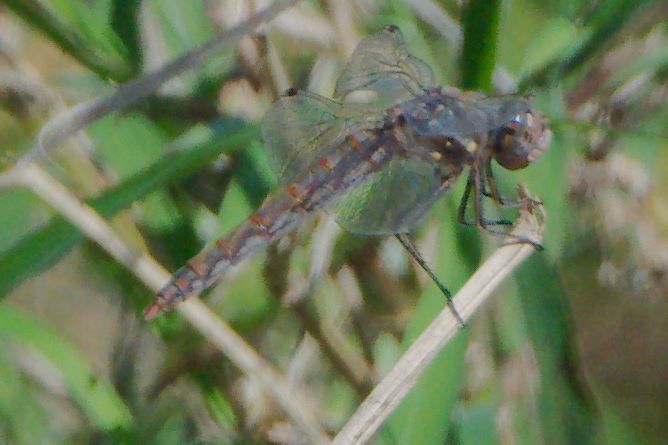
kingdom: Animalia
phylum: Arthropoda
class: Insecta
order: Odonata
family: Libellulidae
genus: Sympetrum
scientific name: Sympetrum corruptum
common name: Variegated meadowhawk
